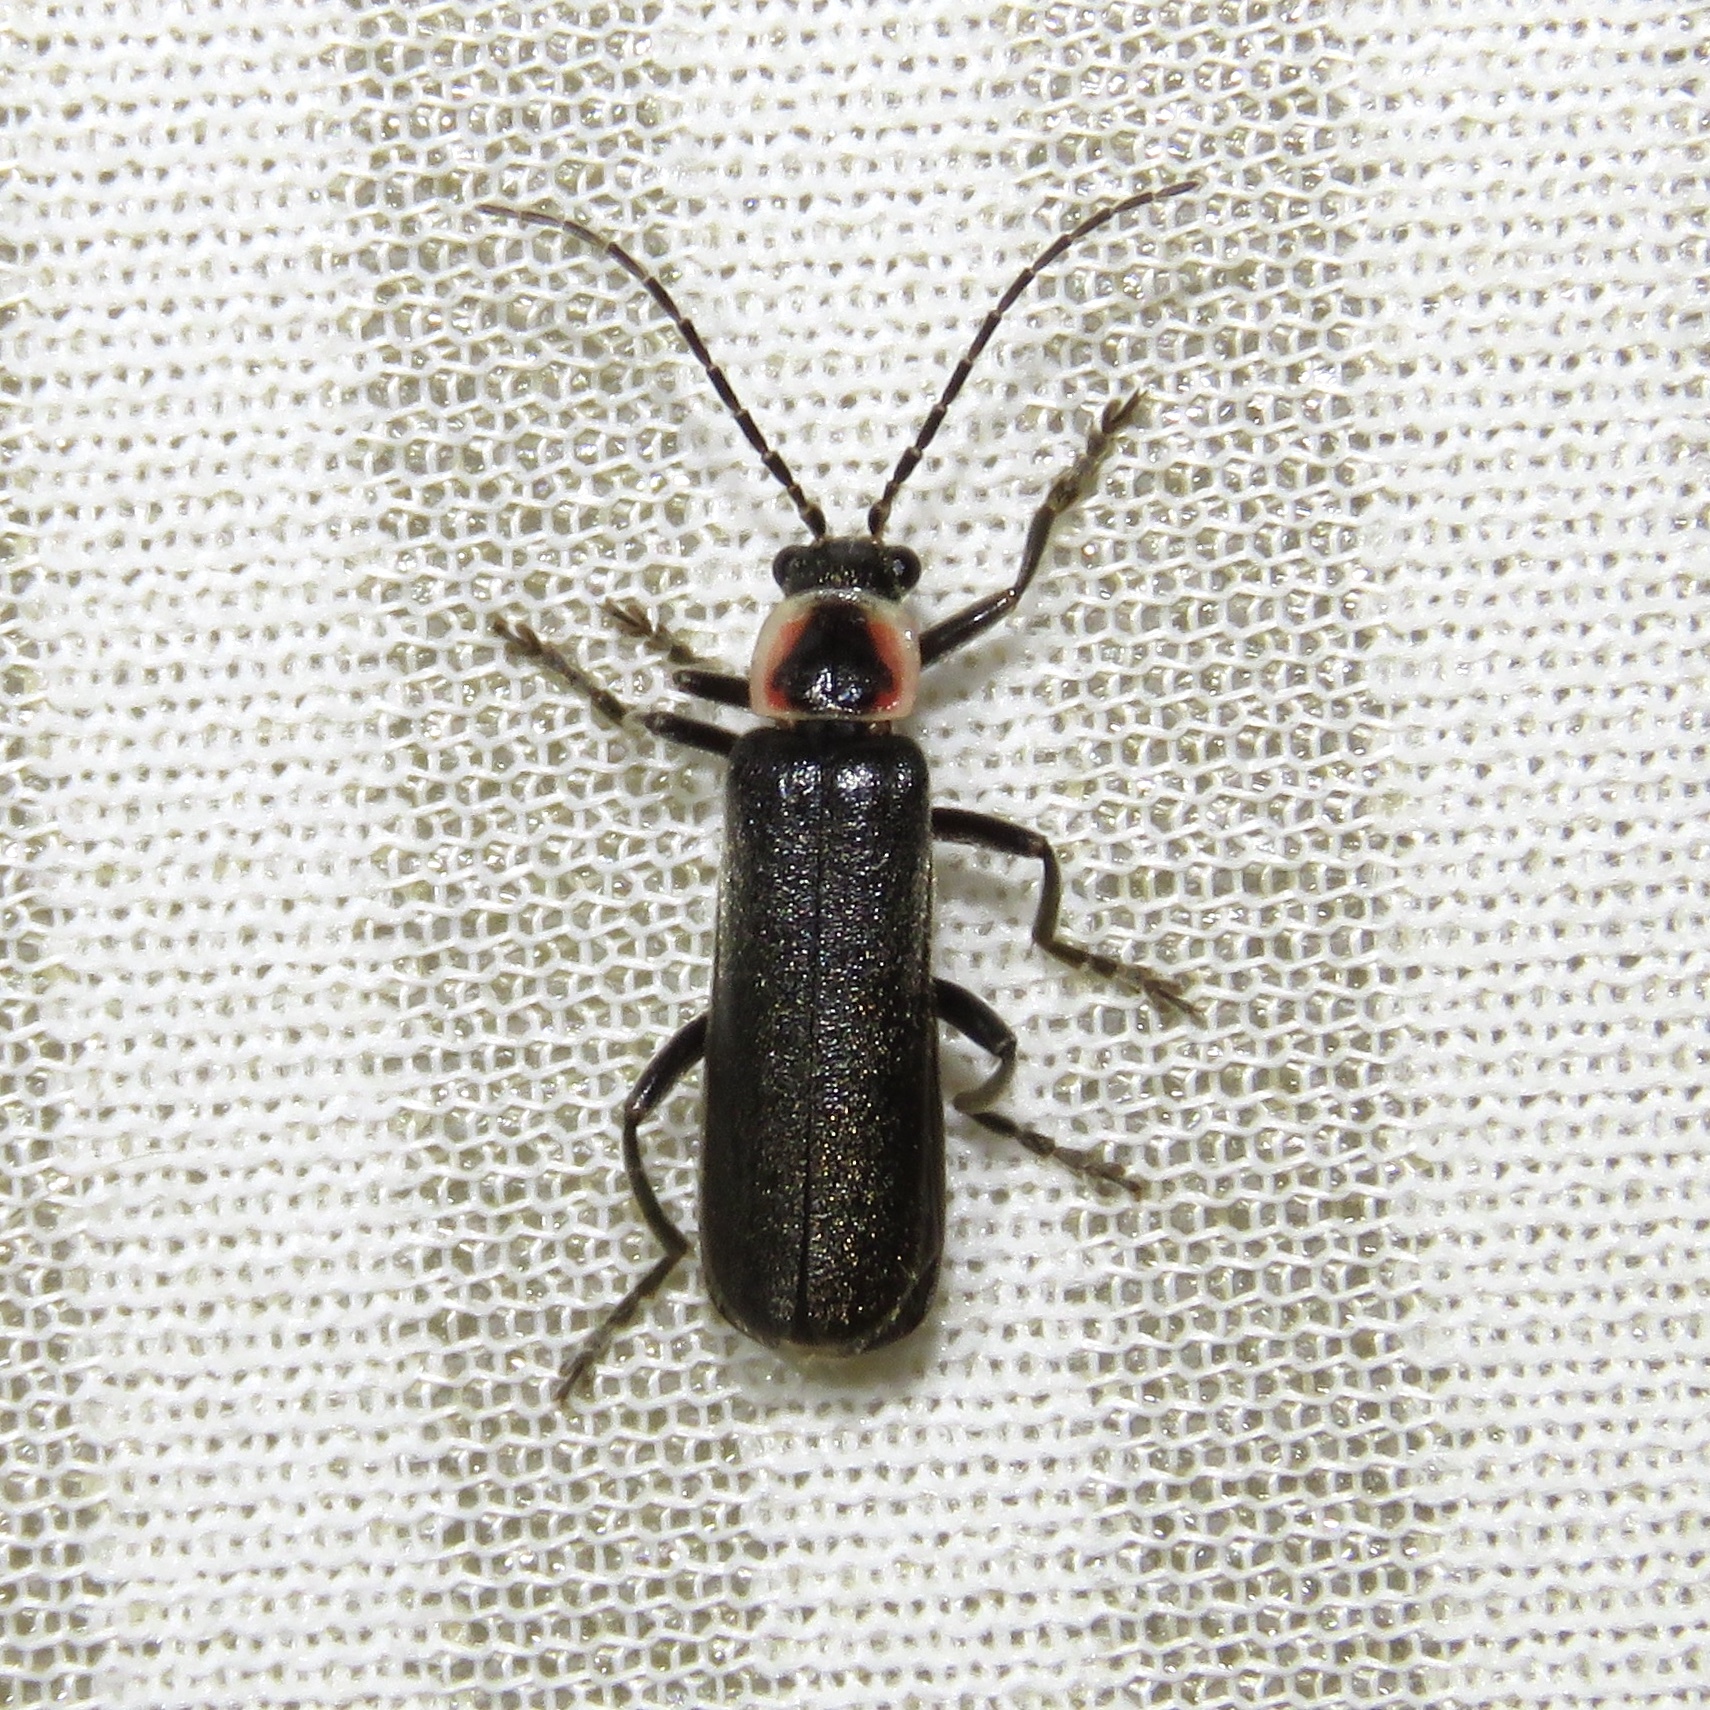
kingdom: Animalia
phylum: Arthropoda
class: Insecta
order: Coleoptera
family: Cantharidae
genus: Rhaxonycha
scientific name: Rhaxonycha bilobata
